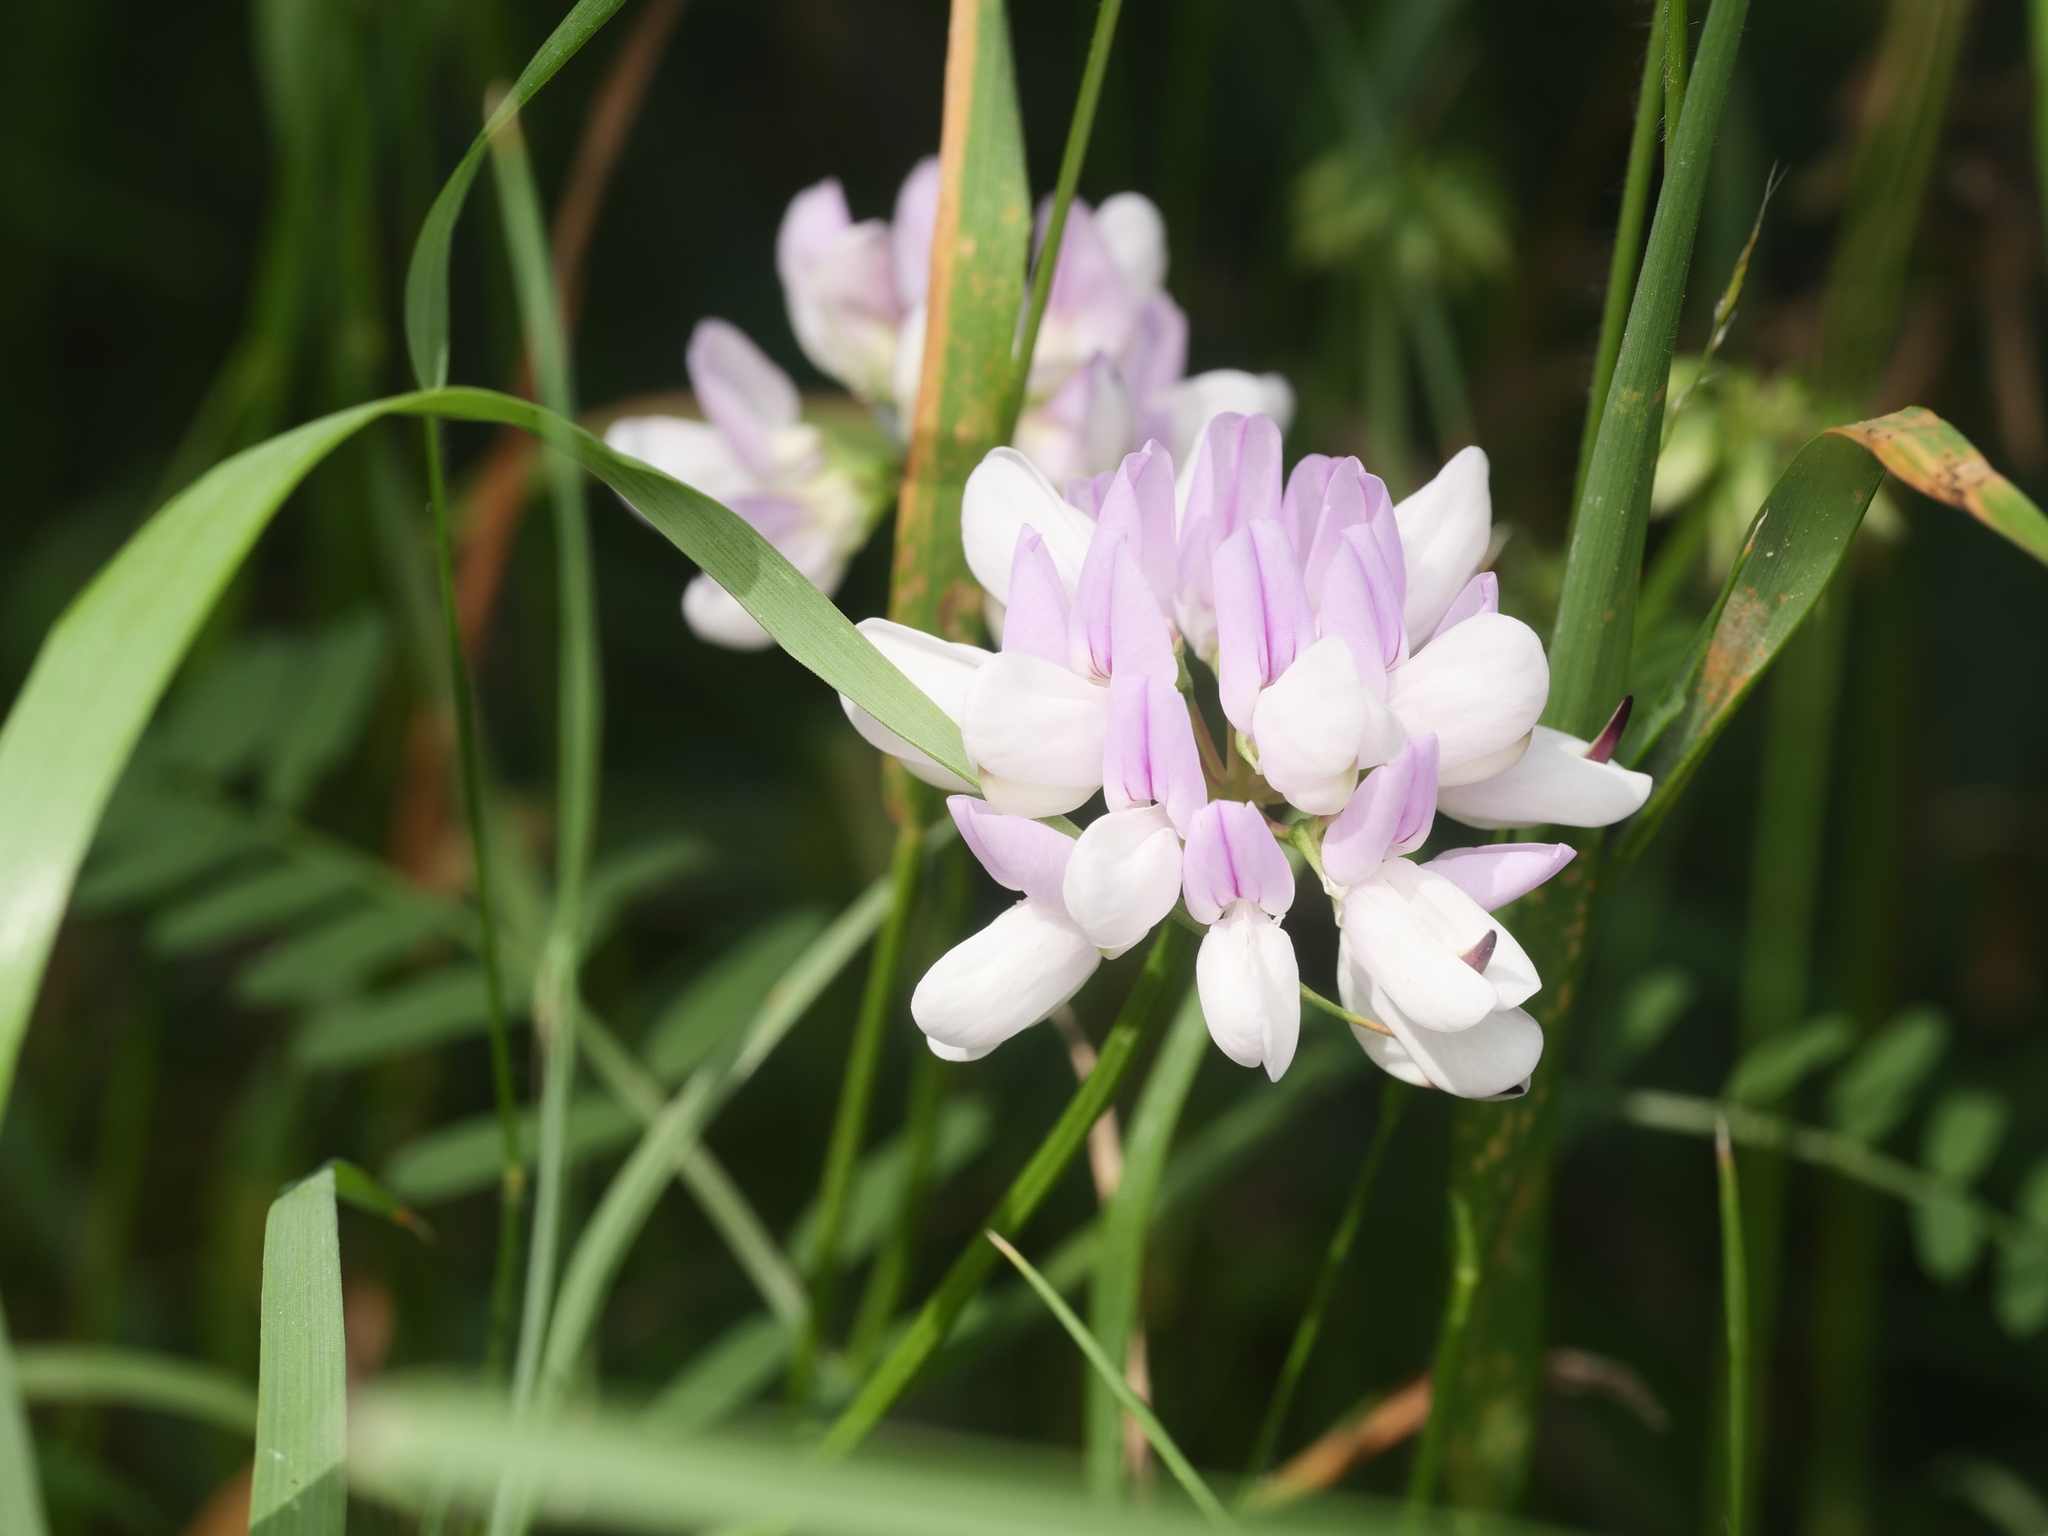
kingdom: Plantae
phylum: Tracheophyta
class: Magnoliopsida
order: Fabales
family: Fabaceae
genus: Coronilla
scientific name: Coronilla varia
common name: Crownvetch
